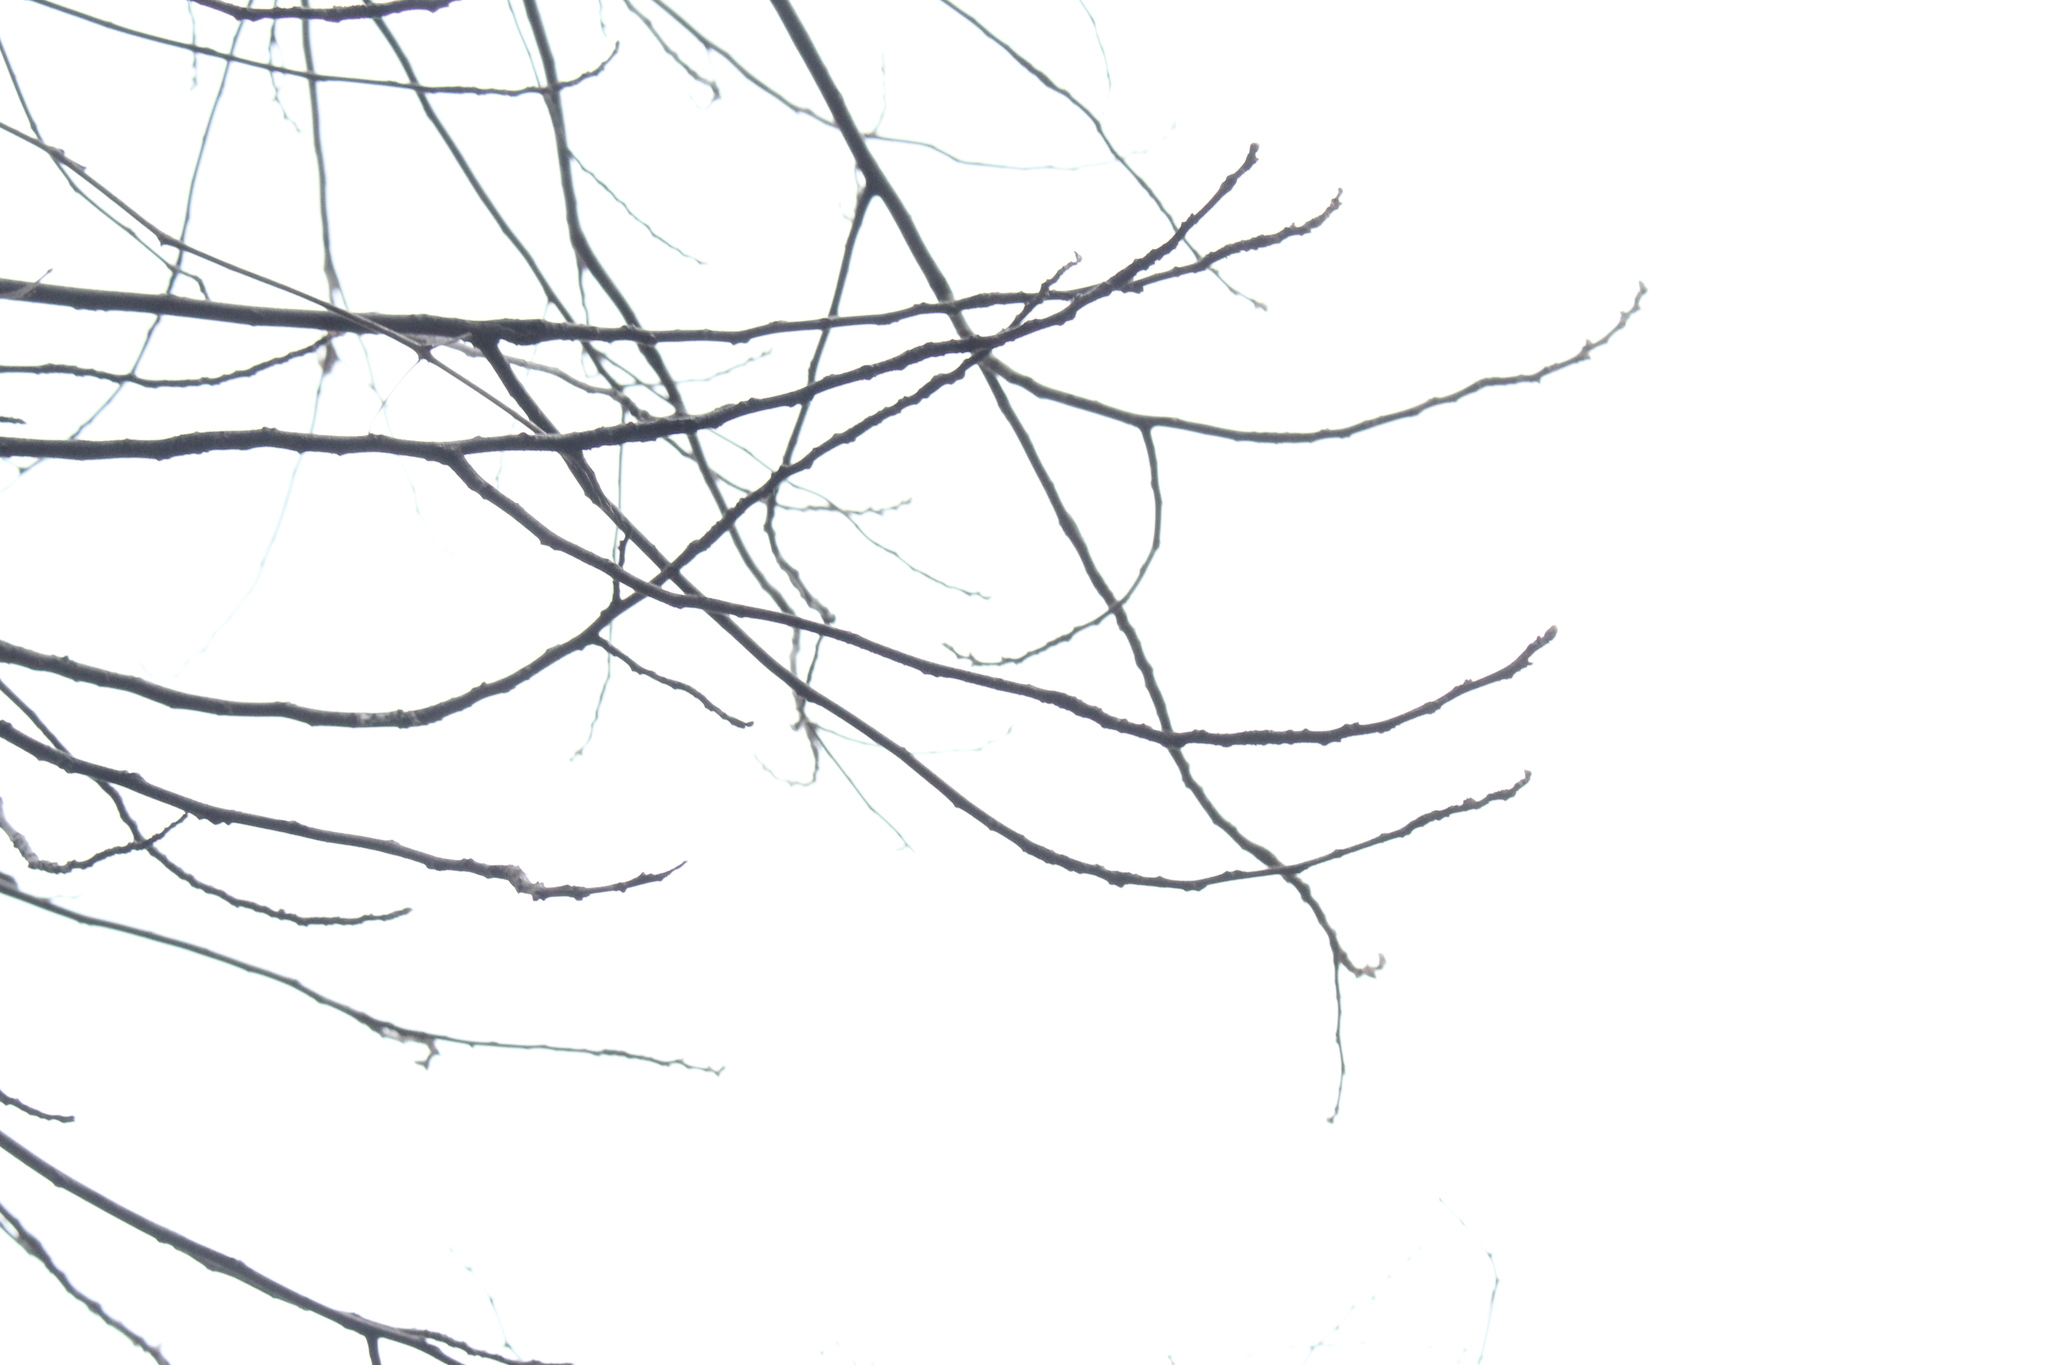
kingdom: Plantae
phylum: Tracheophyta
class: Magnoliopsida
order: Fagales
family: Juglandaceae
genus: Juglans
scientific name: Juglans cinerea
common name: Butternut
